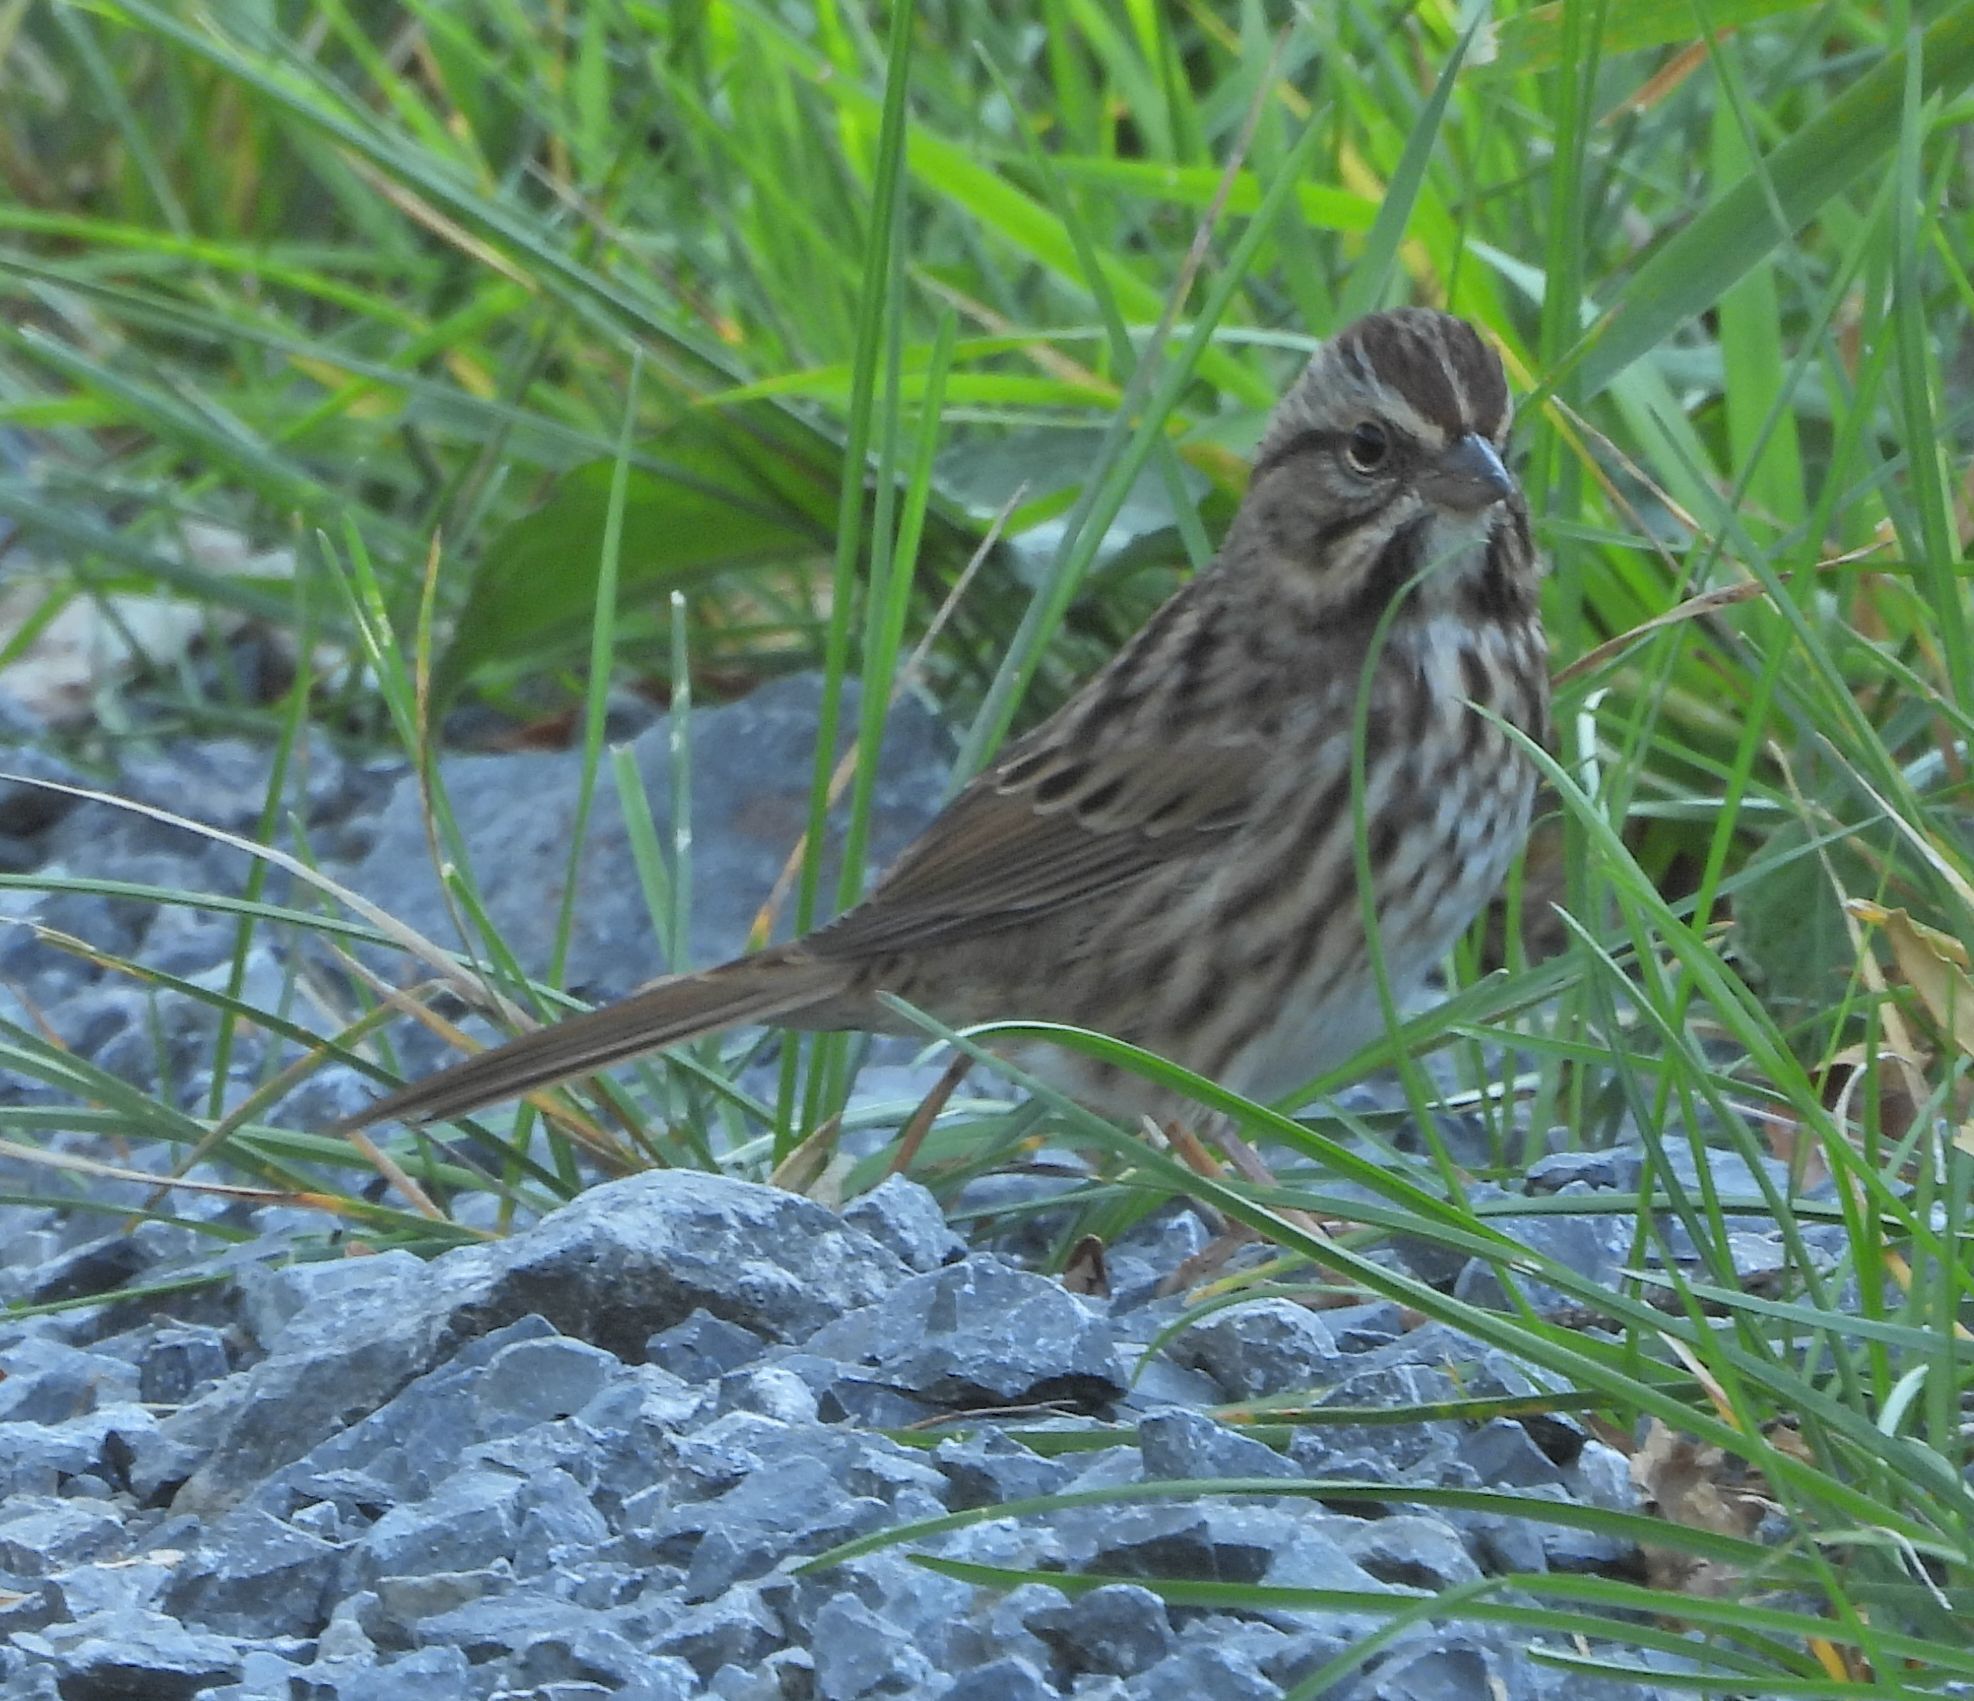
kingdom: Animalia
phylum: Chordata
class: Aves
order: Passeriformes
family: Passerellidae
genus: Melospiza
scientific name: Melospiza melodia
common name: Song sparrow
